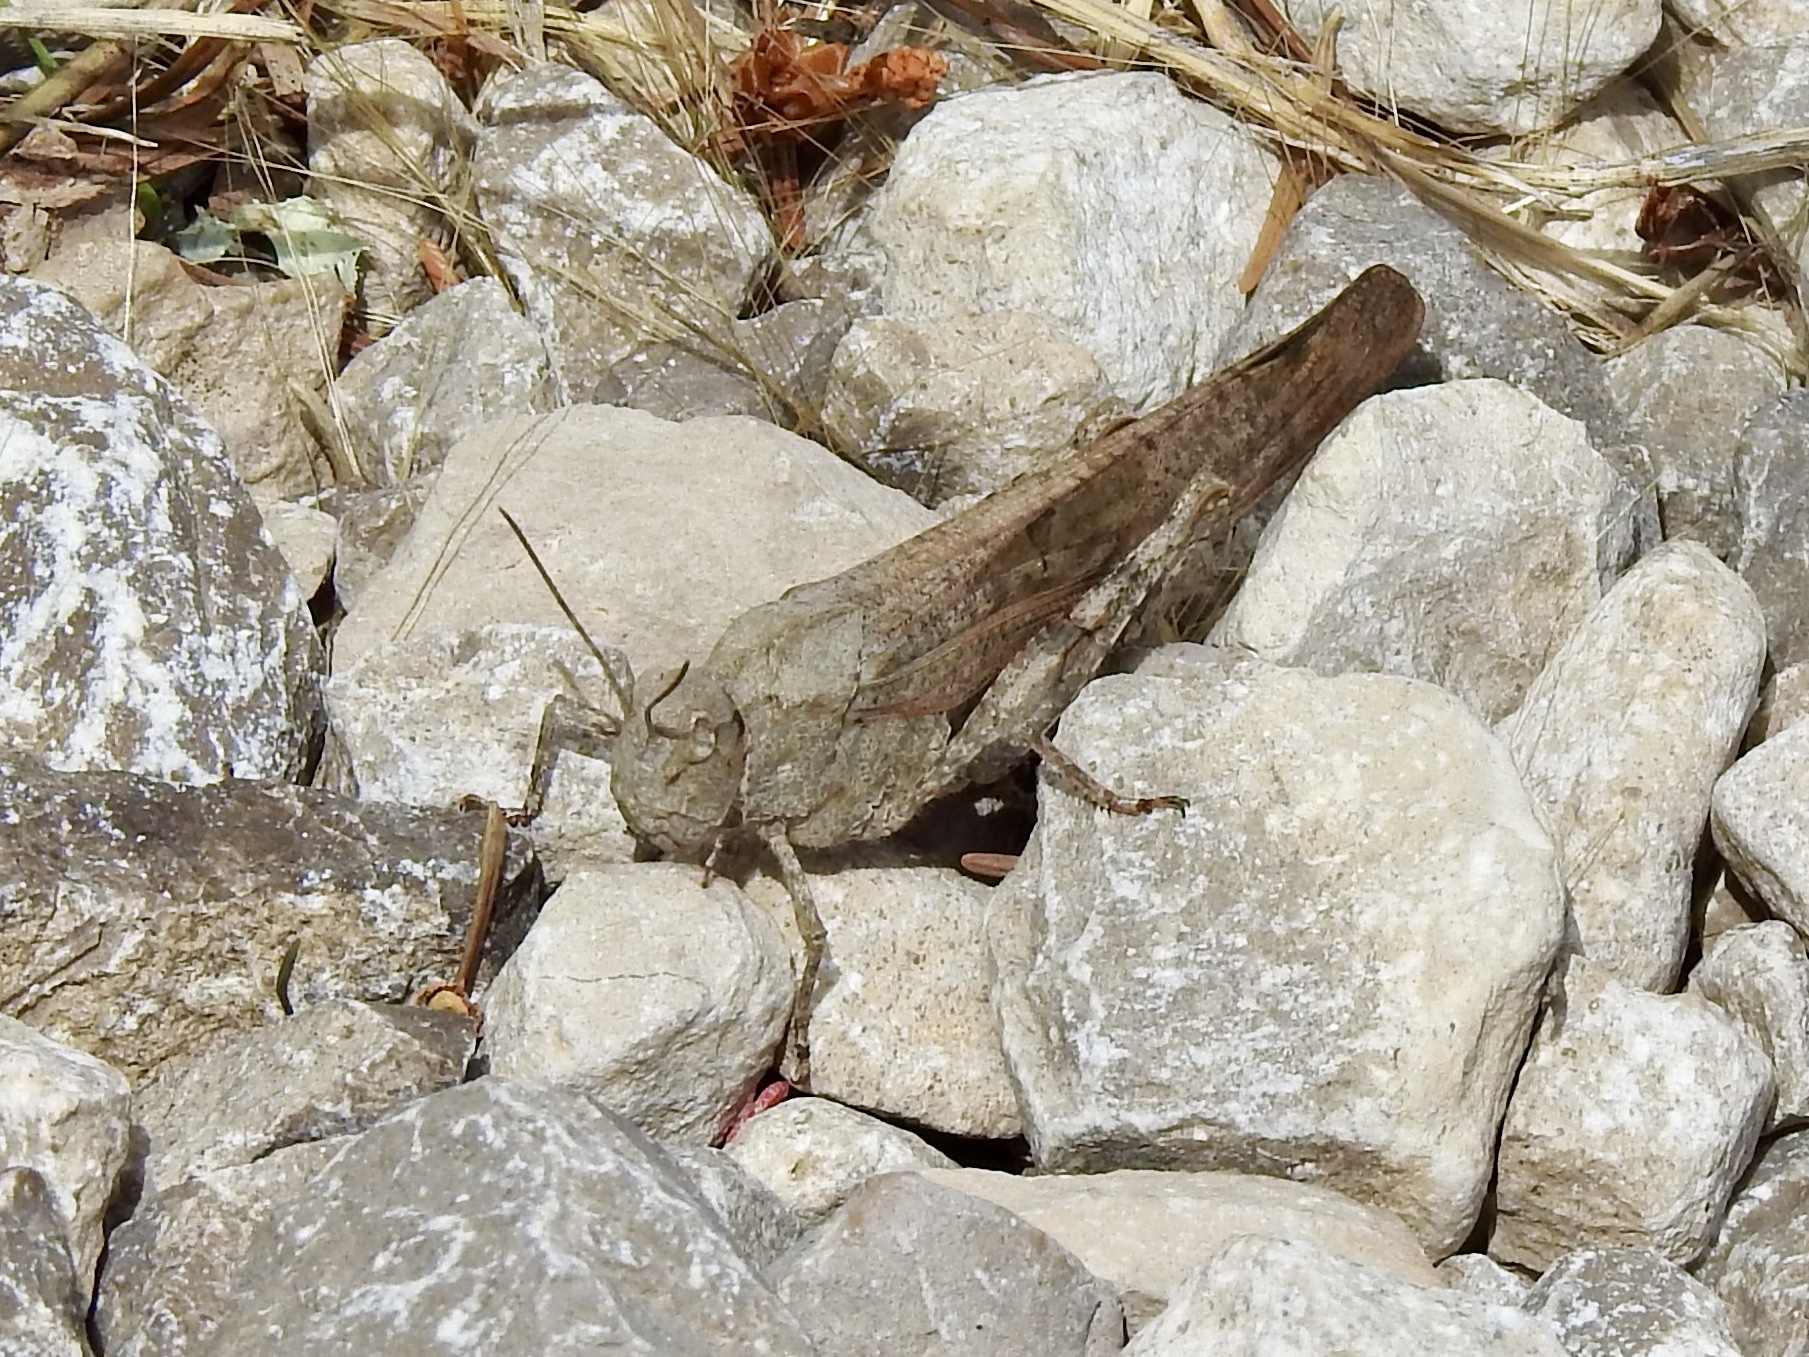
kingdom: Animalia
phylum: Arthropoda
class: Insecta
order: Orthoptera
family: Acrididae
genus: Dissosteira
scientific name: Dissosteira carolina
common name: Carolina grasshopper
